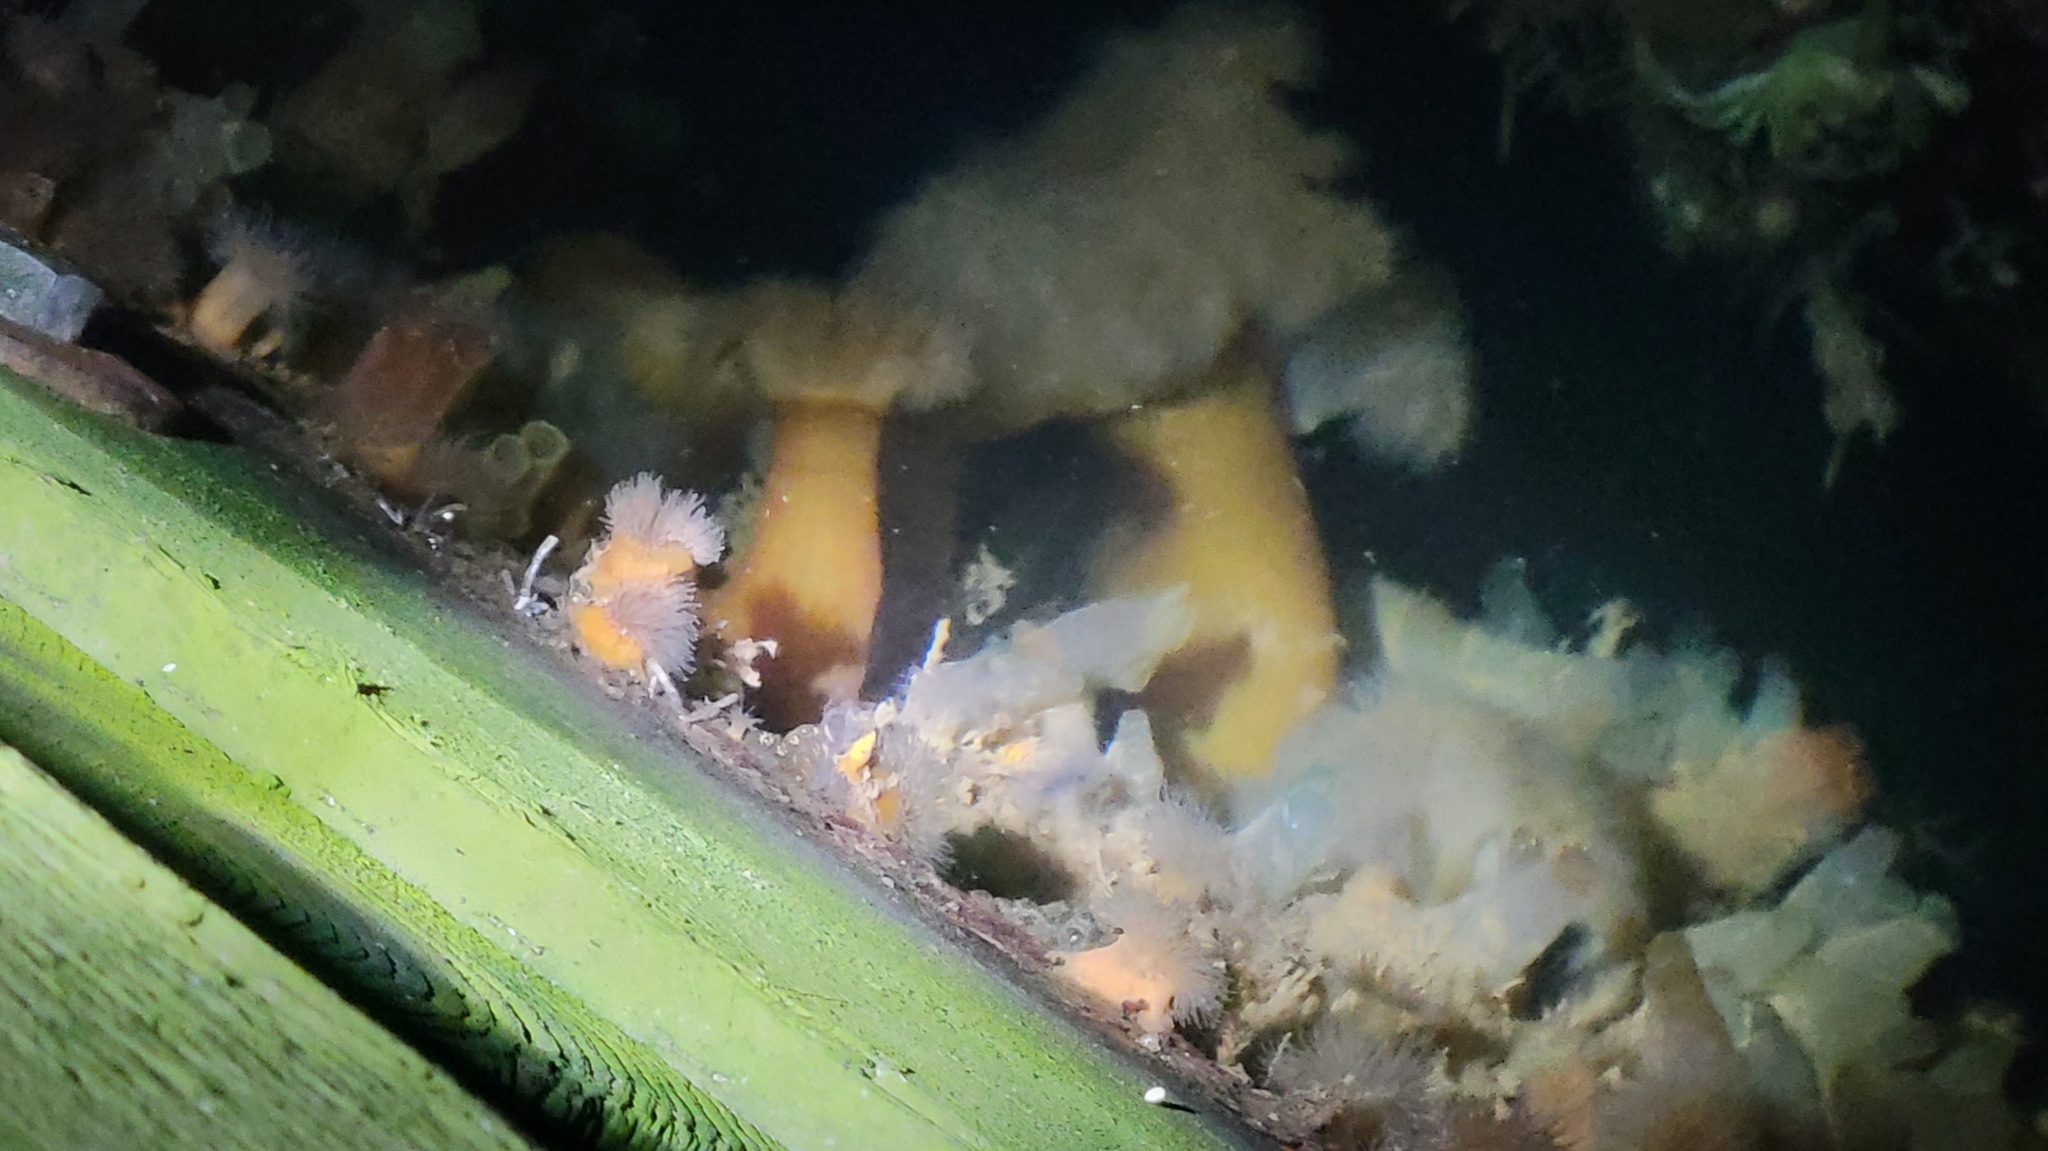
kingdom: Animalia
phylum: Cnidaria
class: Anthozoa
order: Actiniaria
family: Metridiidae
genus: Metridium
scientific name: Metridium senile
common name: Clonal plumose anemone
